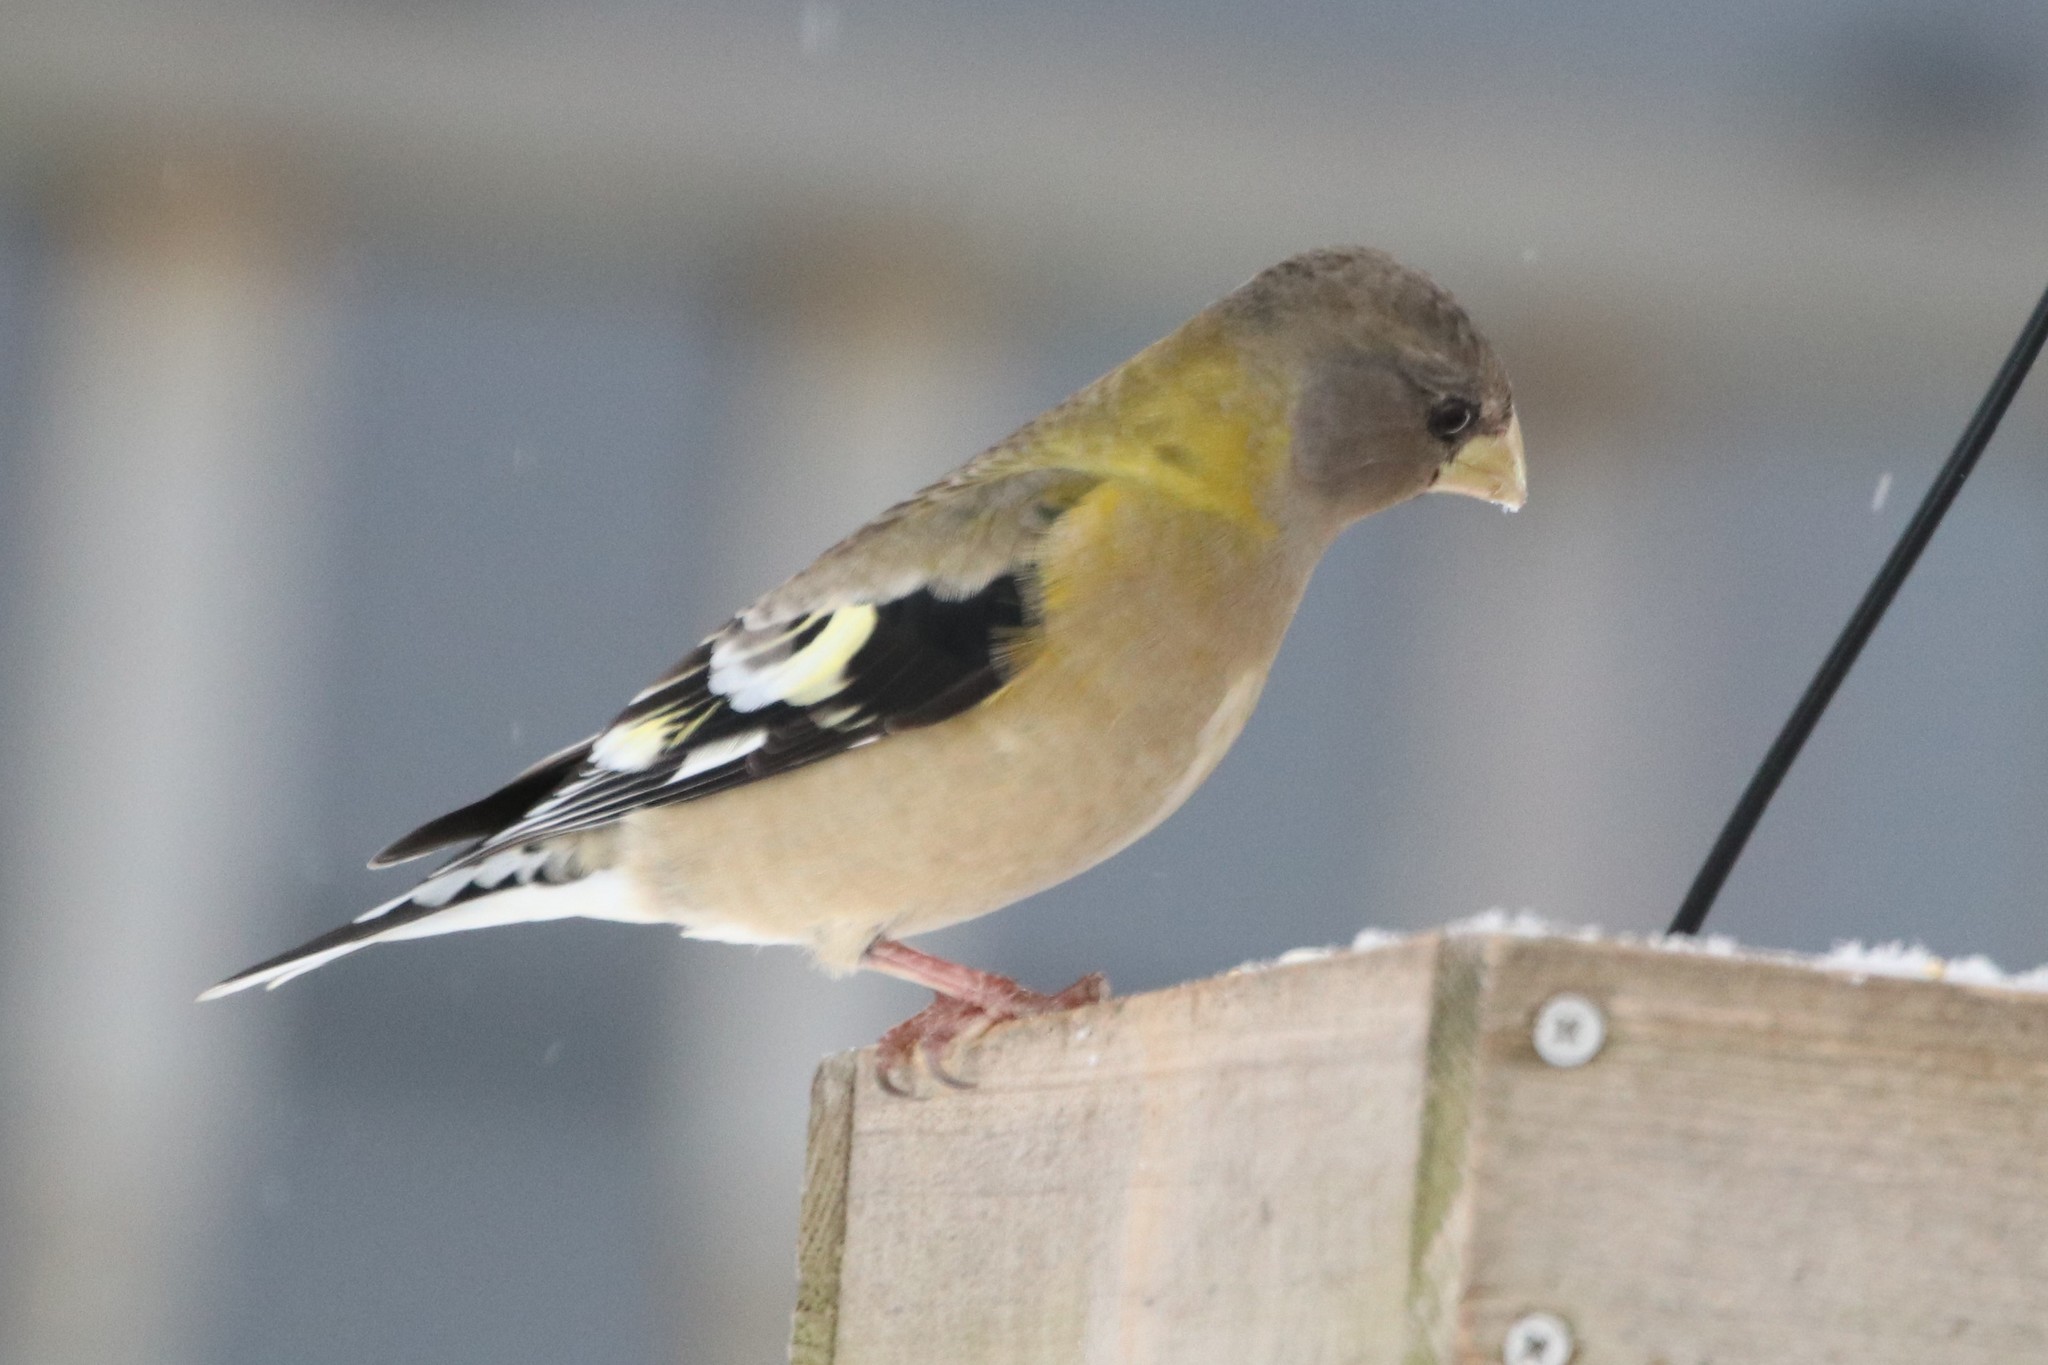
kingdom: Animalia
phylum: Chordata
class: Aves
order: Passeriformes
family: Fringillidae
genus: Hesperiphona
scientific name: Hesperiphona vespertina
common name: Evening grosbeak
